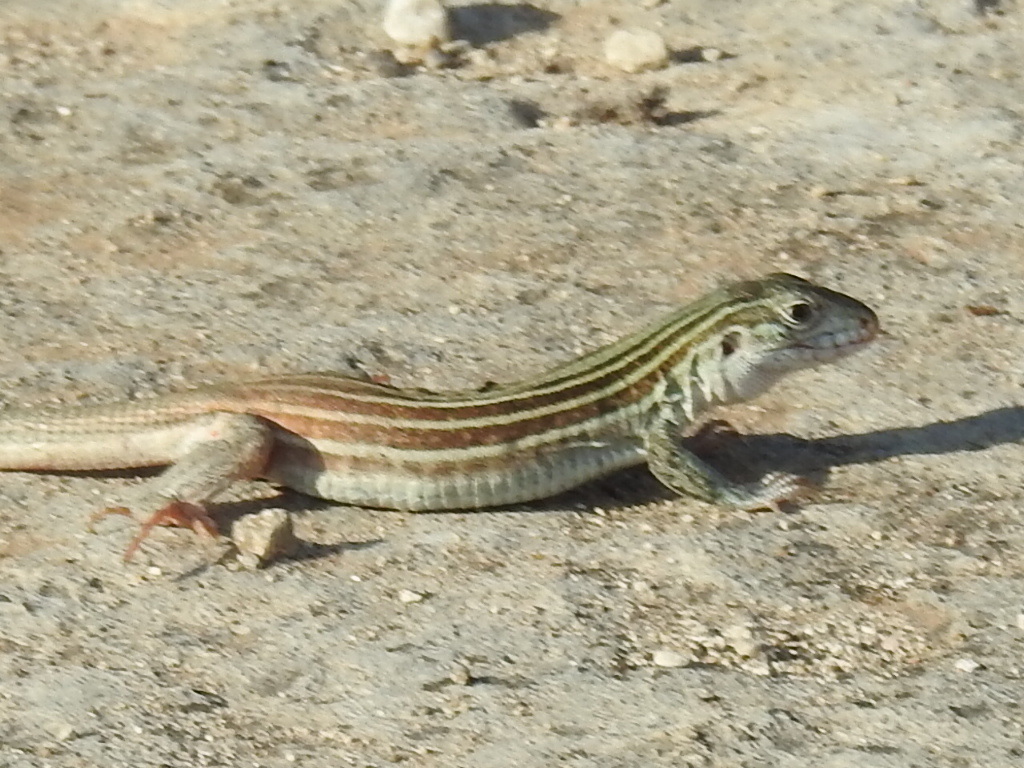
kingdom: Animalia
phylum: Chordata
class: Squamata
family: Teiidae
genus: Aspidoscelis
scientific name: Aspidoscelis gularis
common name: Eastern spotted whiptail
